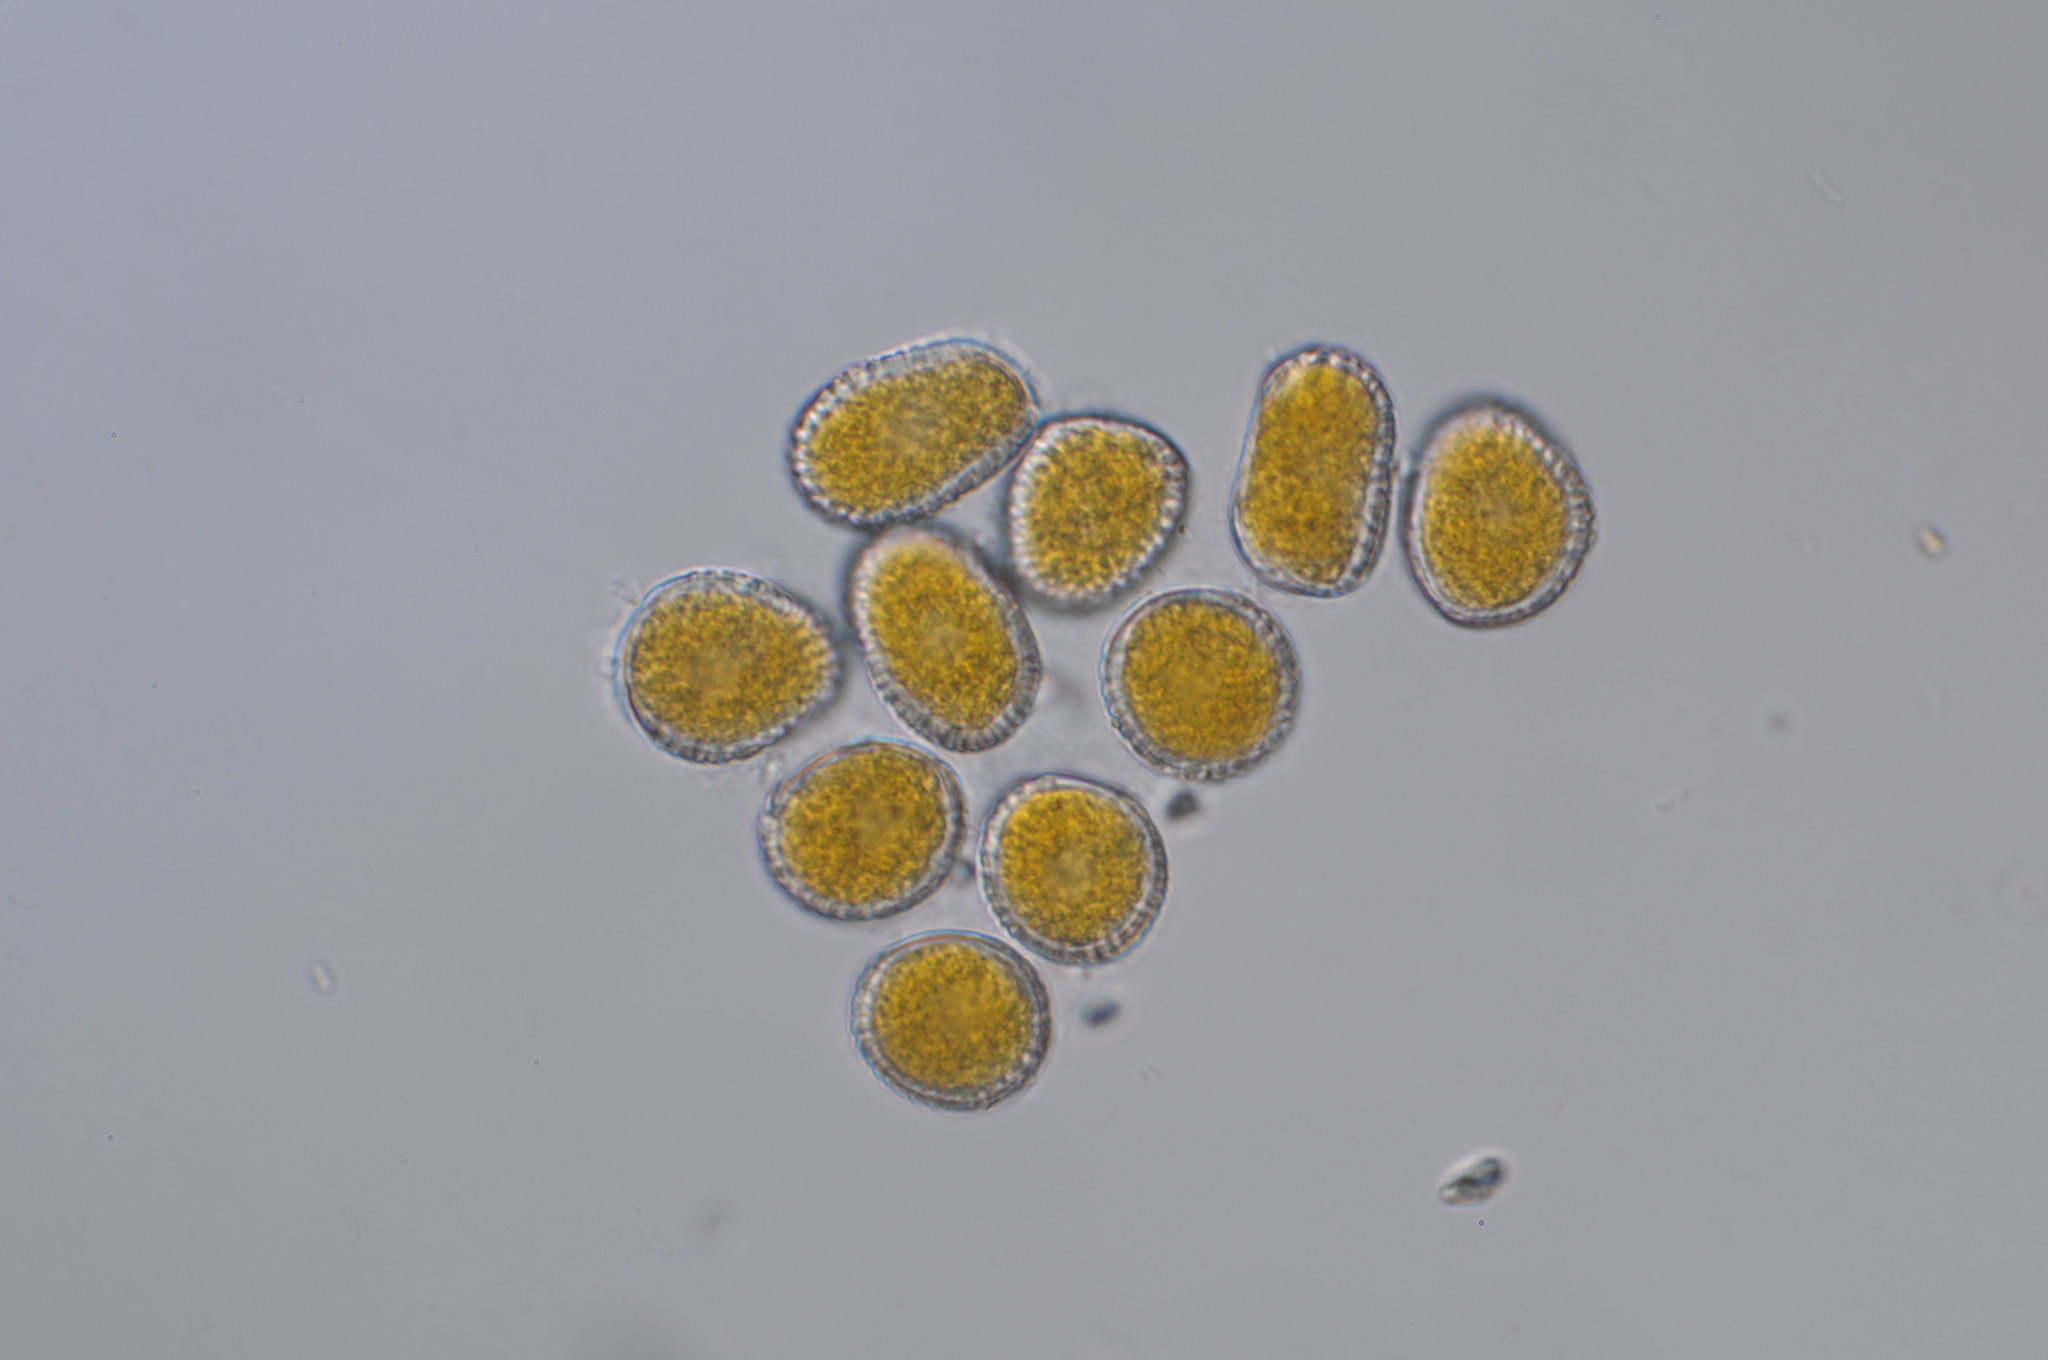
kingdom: Fungi
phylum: Basidiomycota
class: Pucciniomycetes
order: Pucciniales
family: Coleosporiaceae
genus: Coleosporium
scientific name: Coleosporium plumeriae
